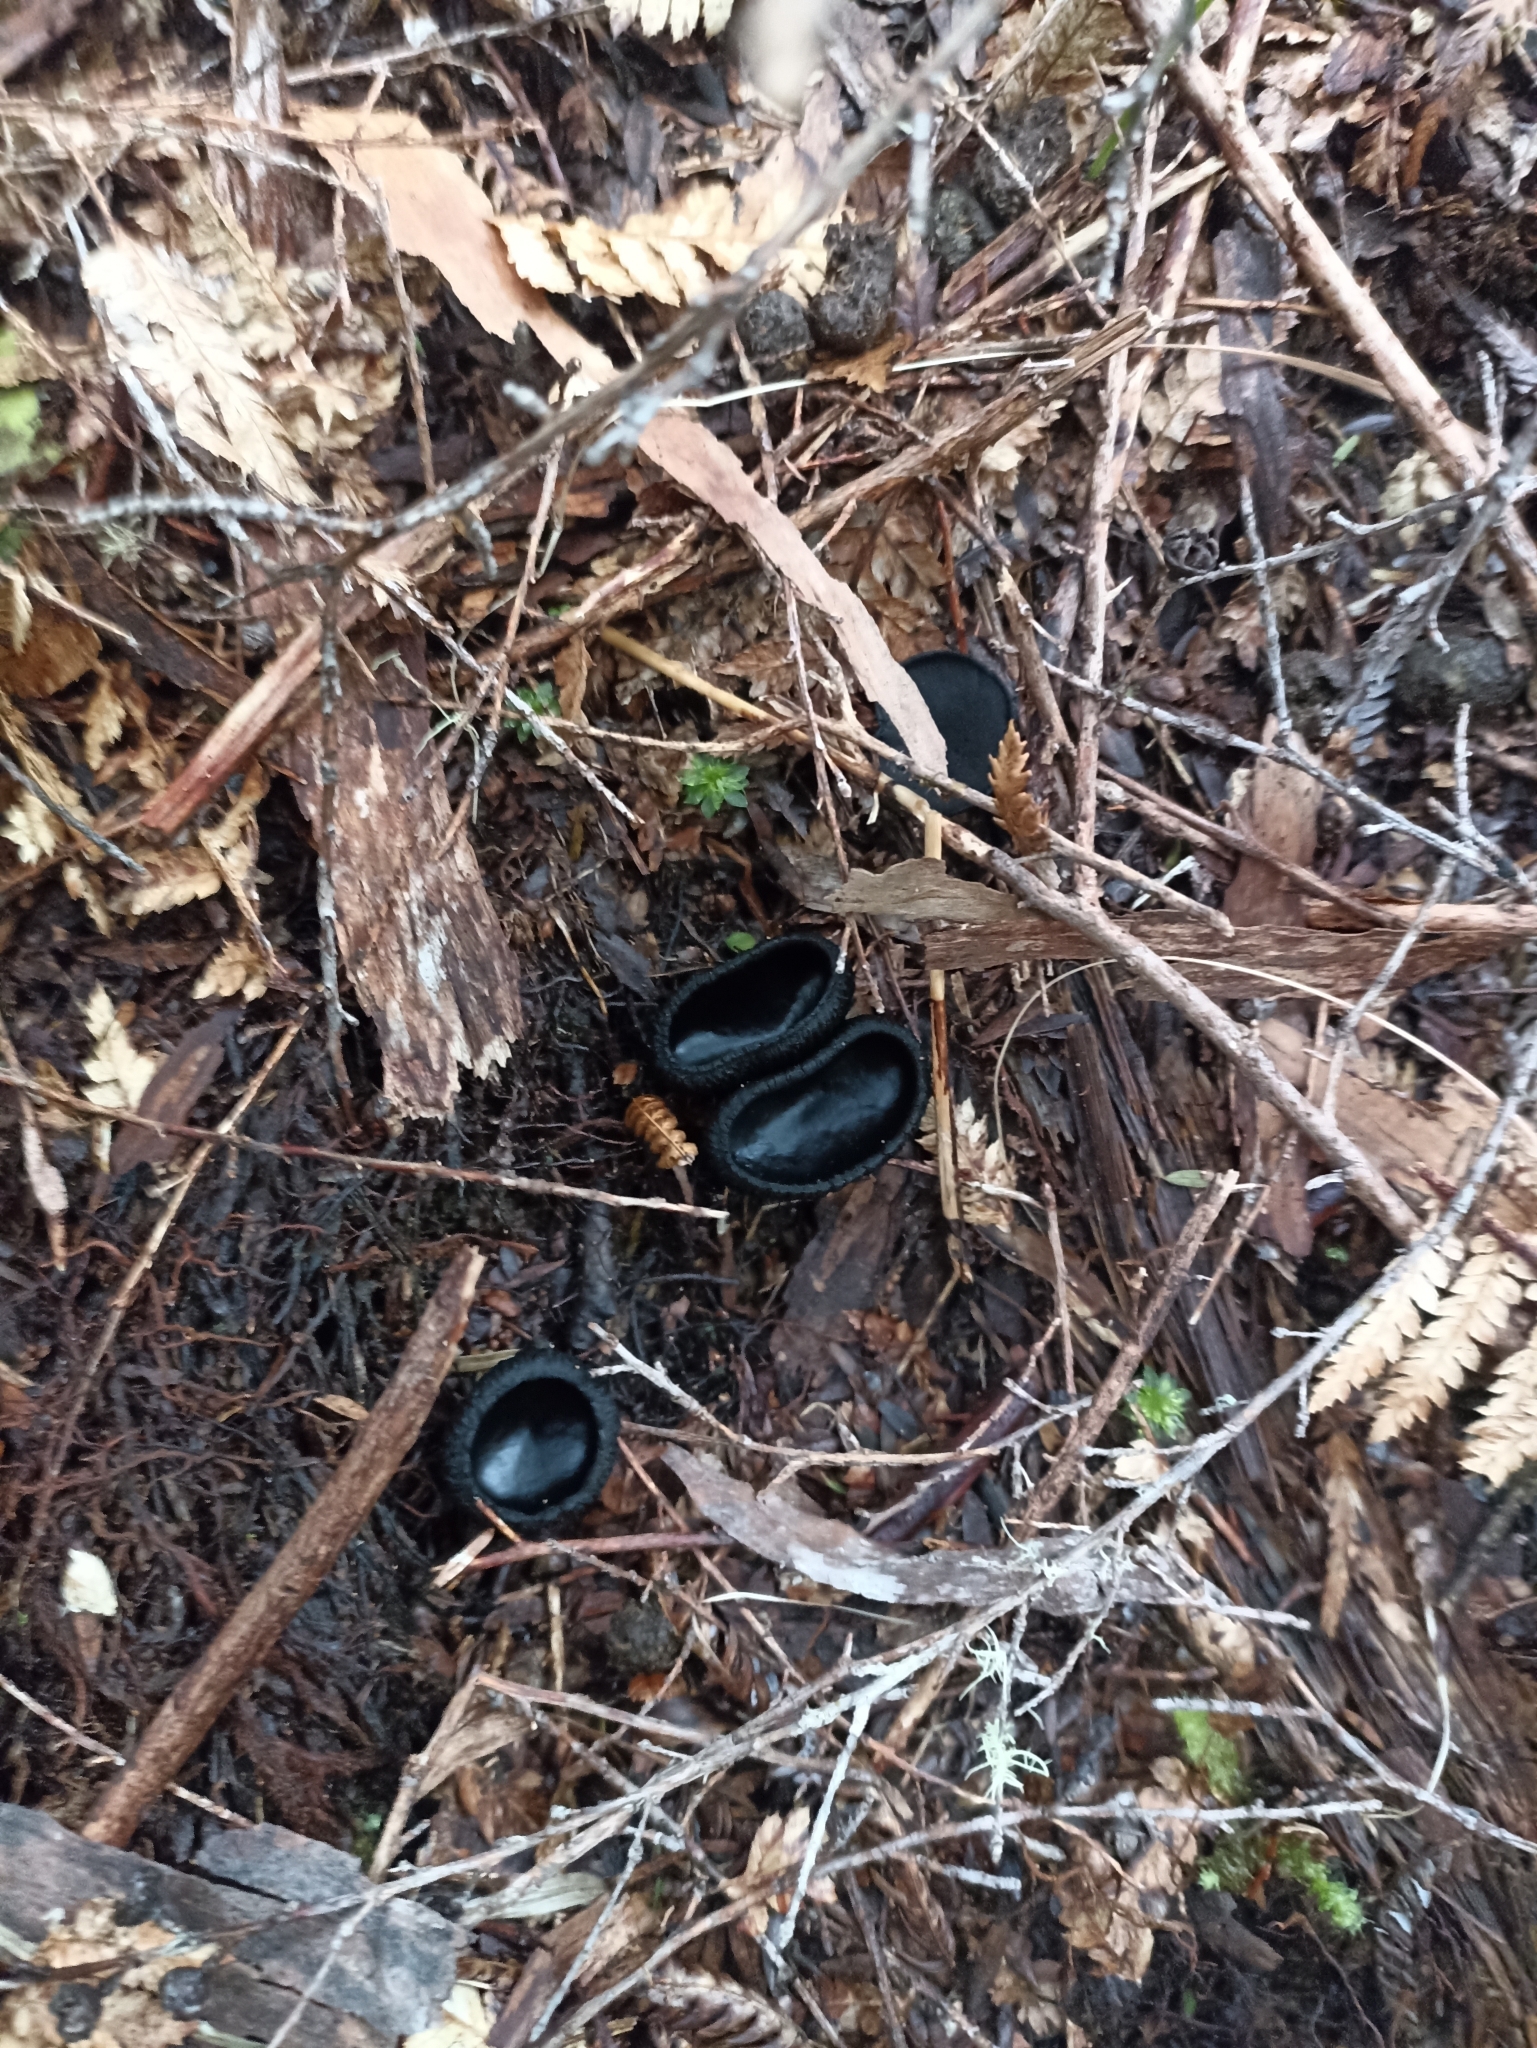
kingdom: Fungi
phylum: Ascomycota
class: Pezizomycetes
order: Pezizales
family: Sarcosomataceae
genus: Plectania
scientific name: Plectania rhytidia
